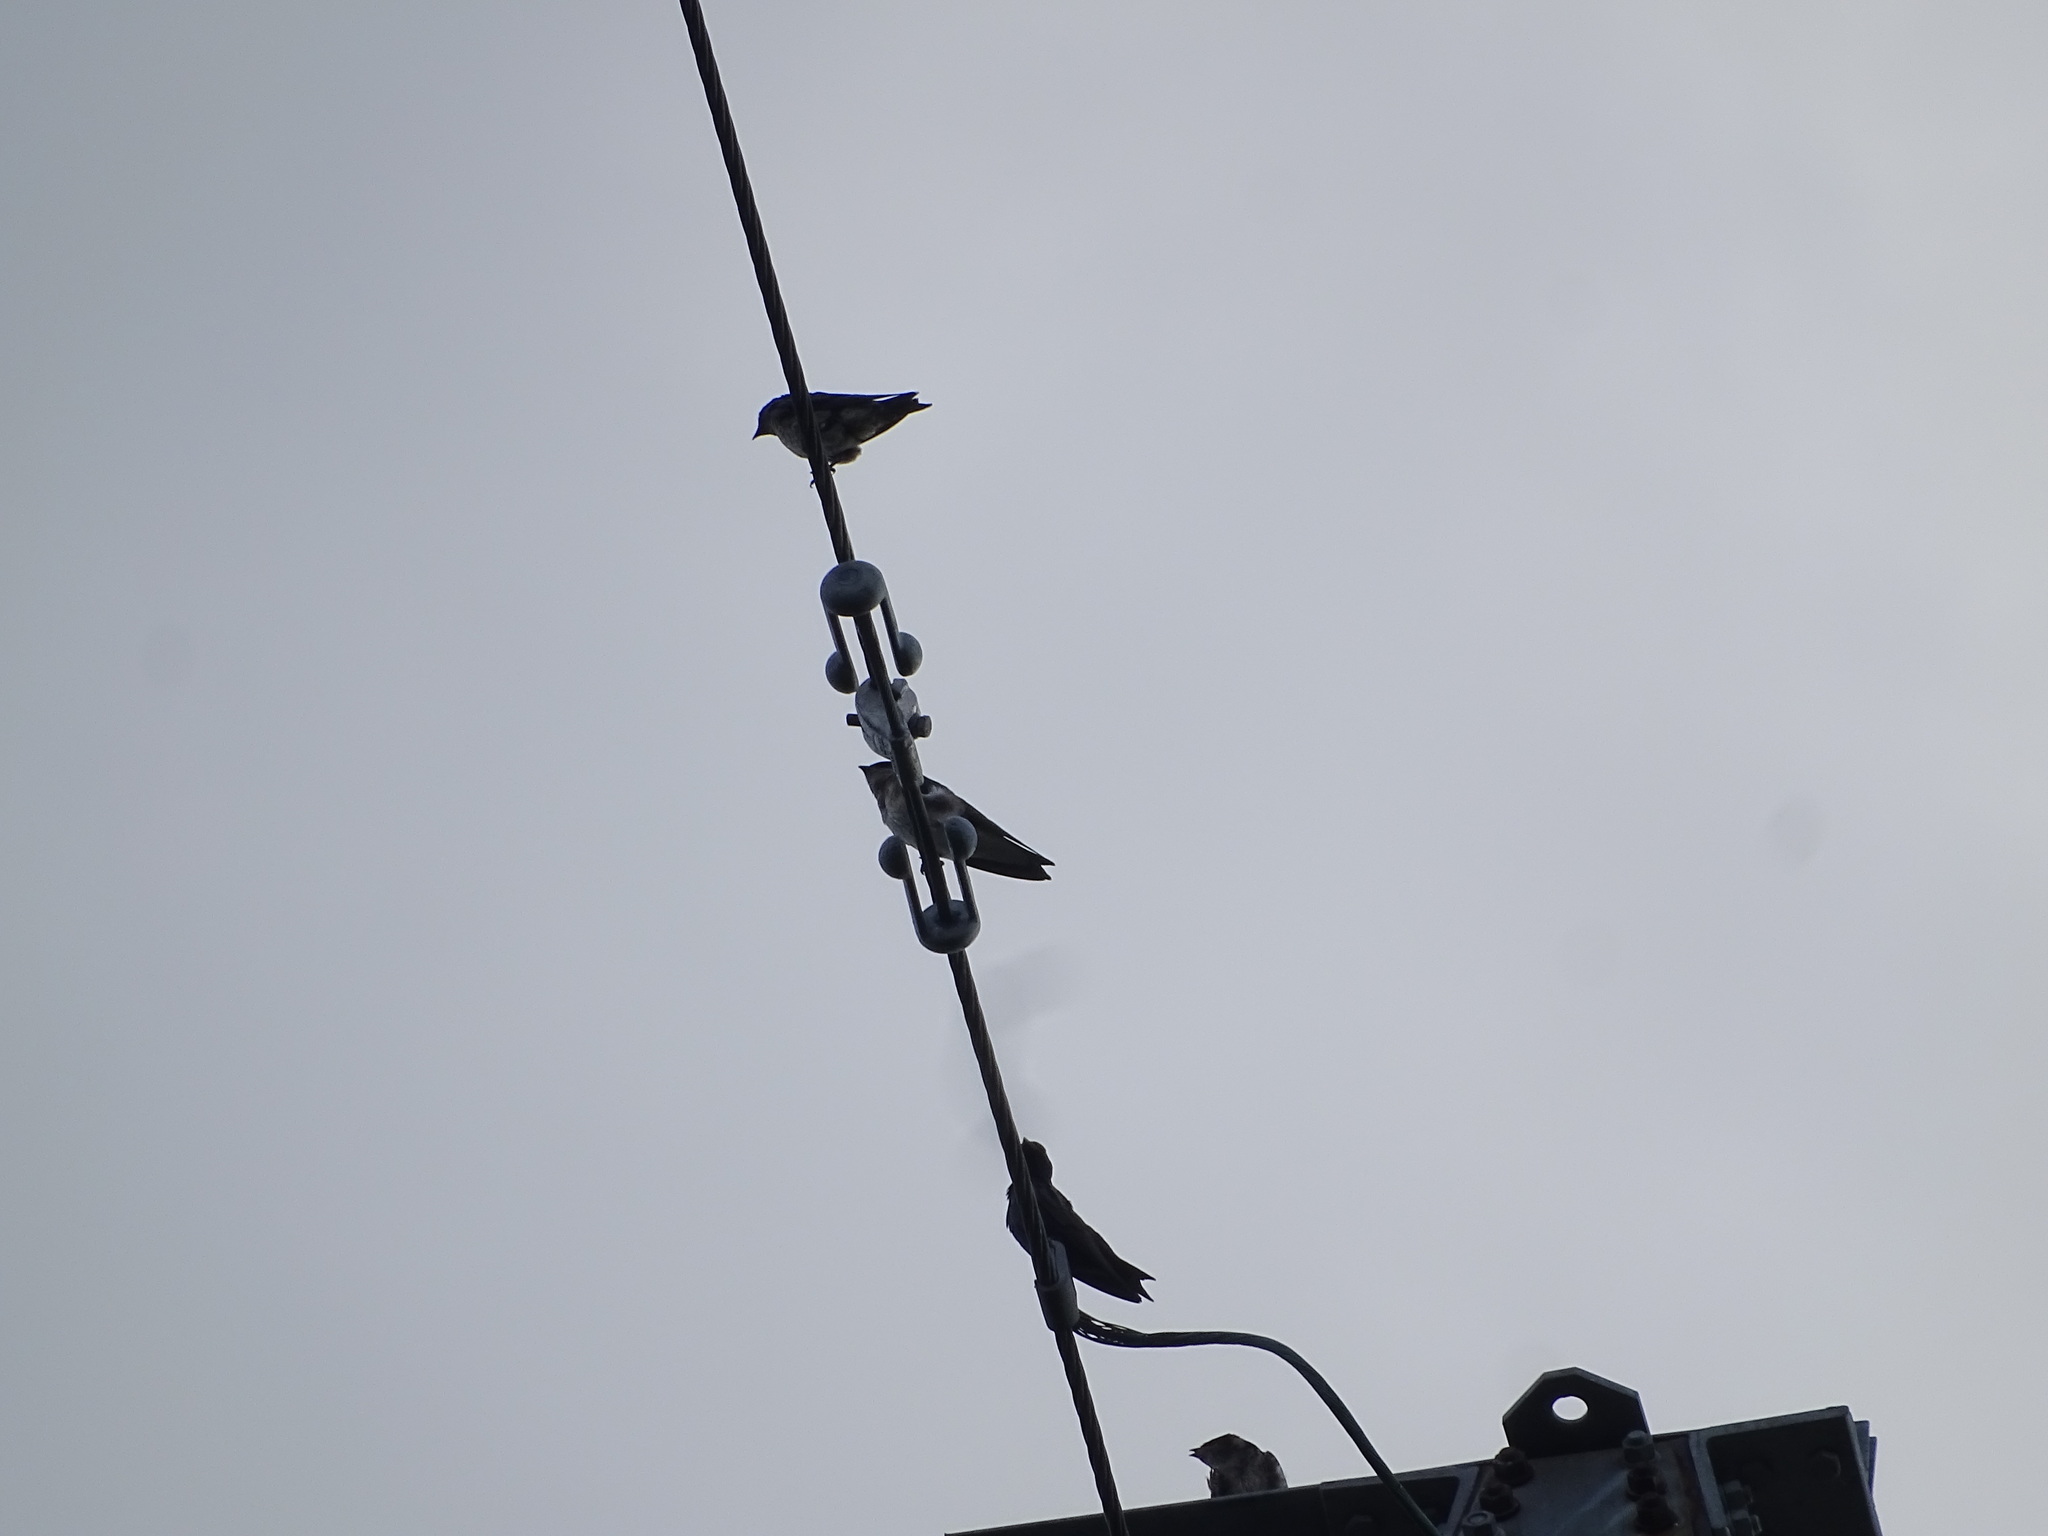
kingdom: Animalia
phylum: Chordata
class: Aves
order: Passeriformes
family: Hirundinidae
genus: Progne
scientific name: Progne subis
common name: Purple martin
